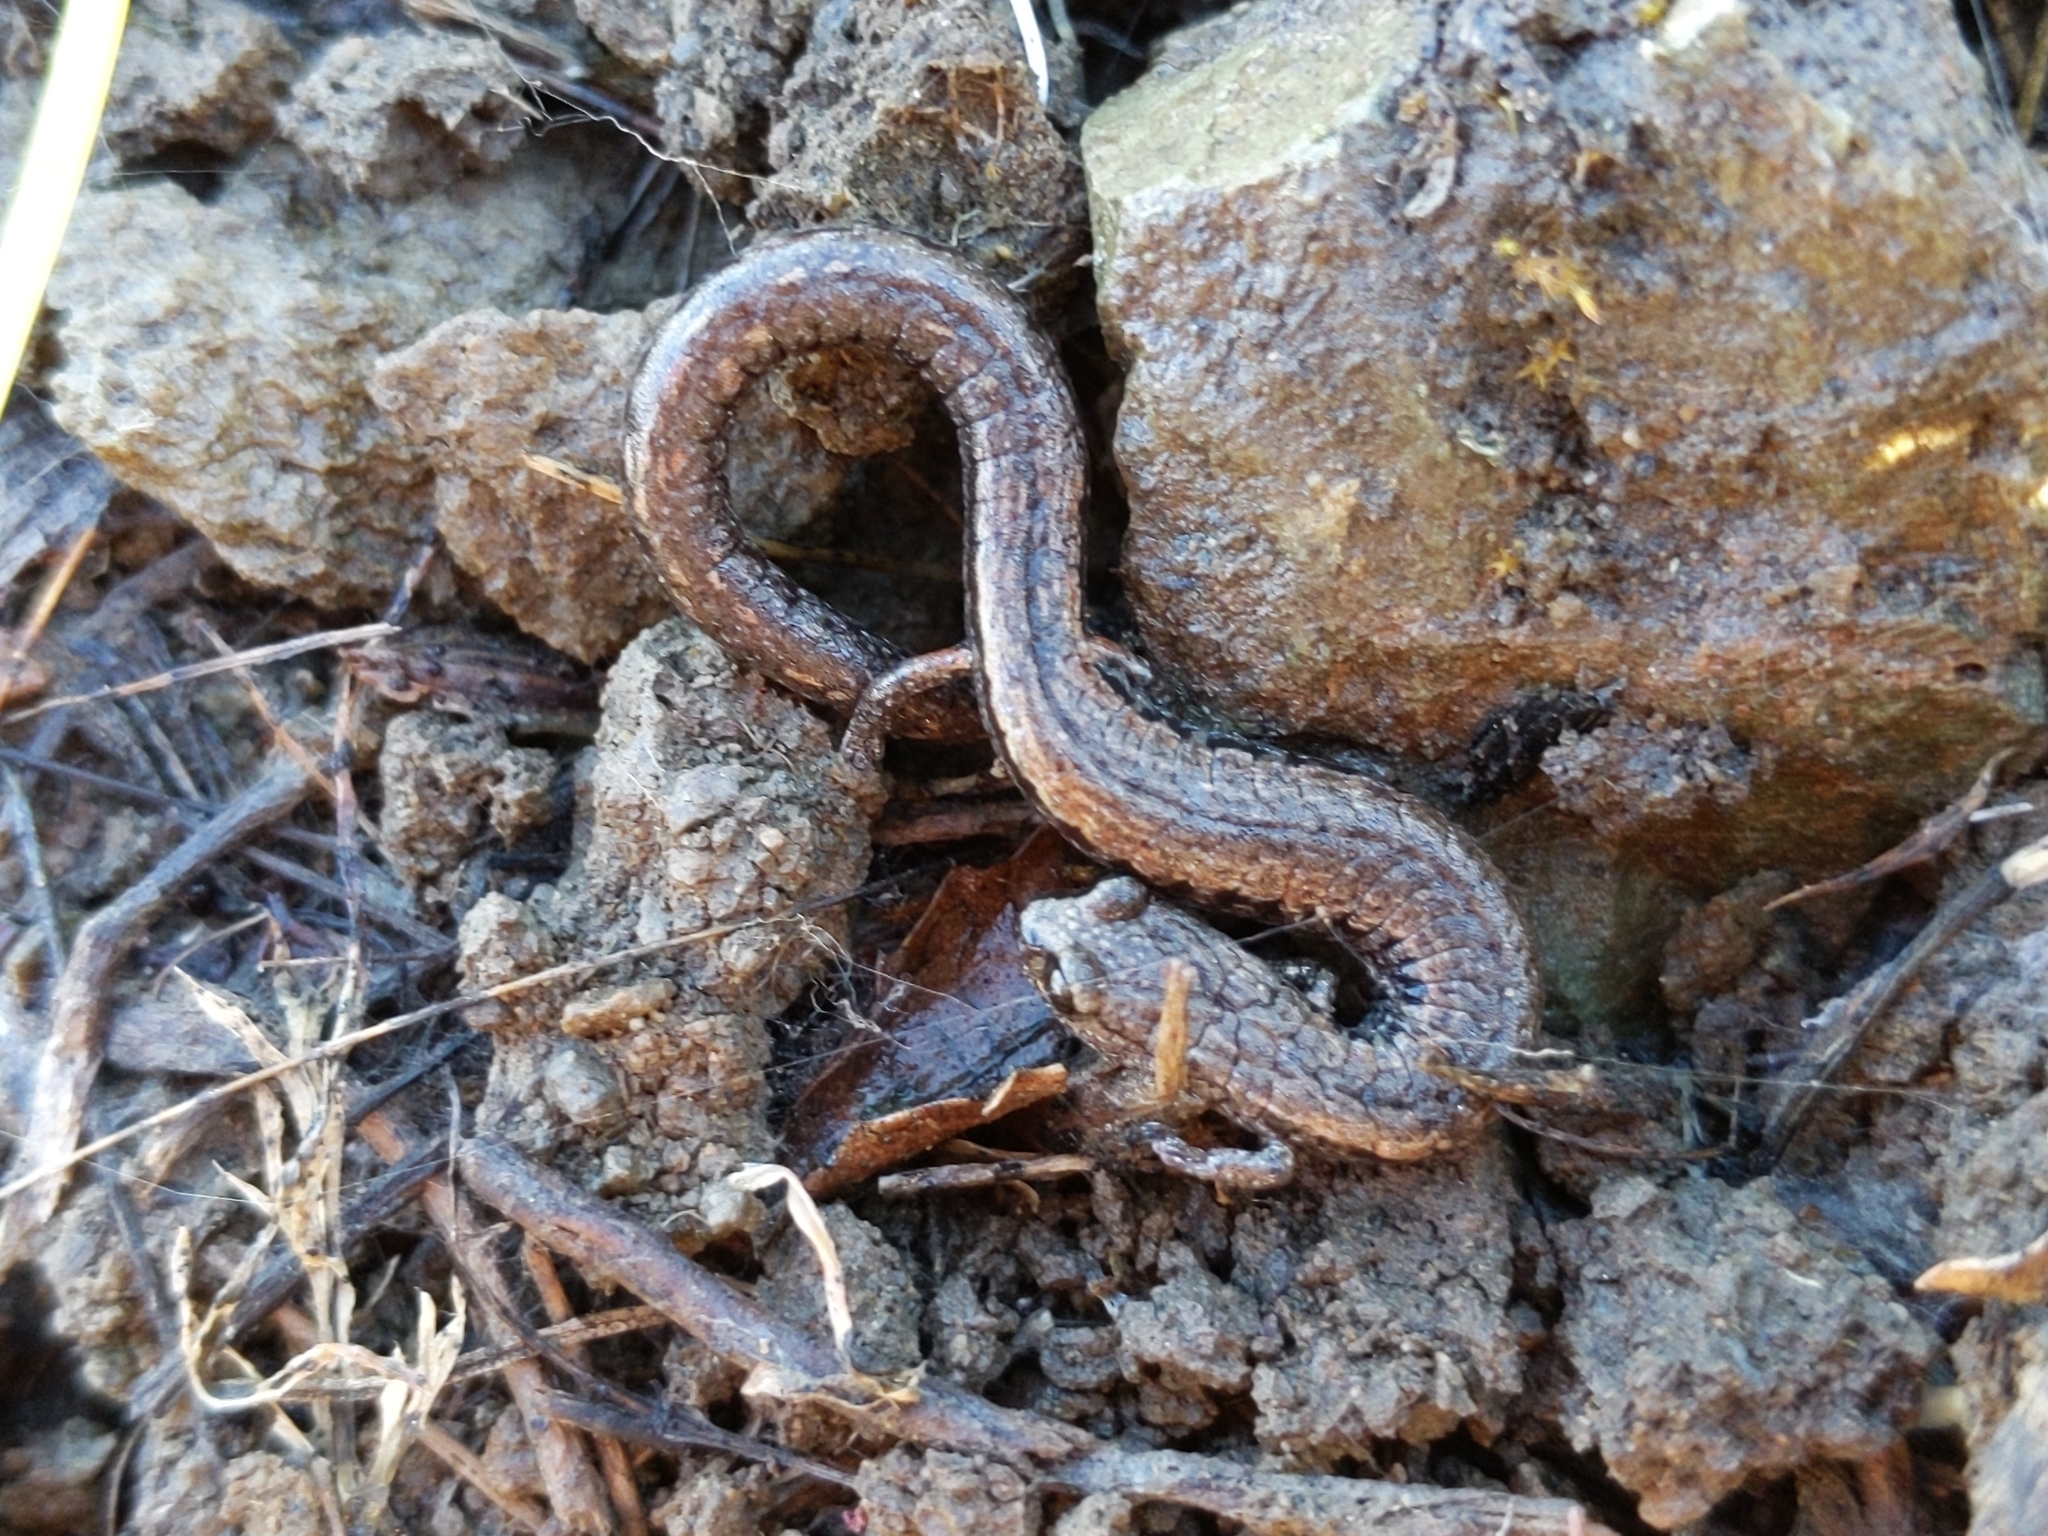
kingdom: Animalia
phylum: Chordata
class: Amphibia
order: Caudata
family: Plethodontidae
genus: Batrachoseps
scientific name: Batrachoseps attenuatus
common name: California slender salamander
